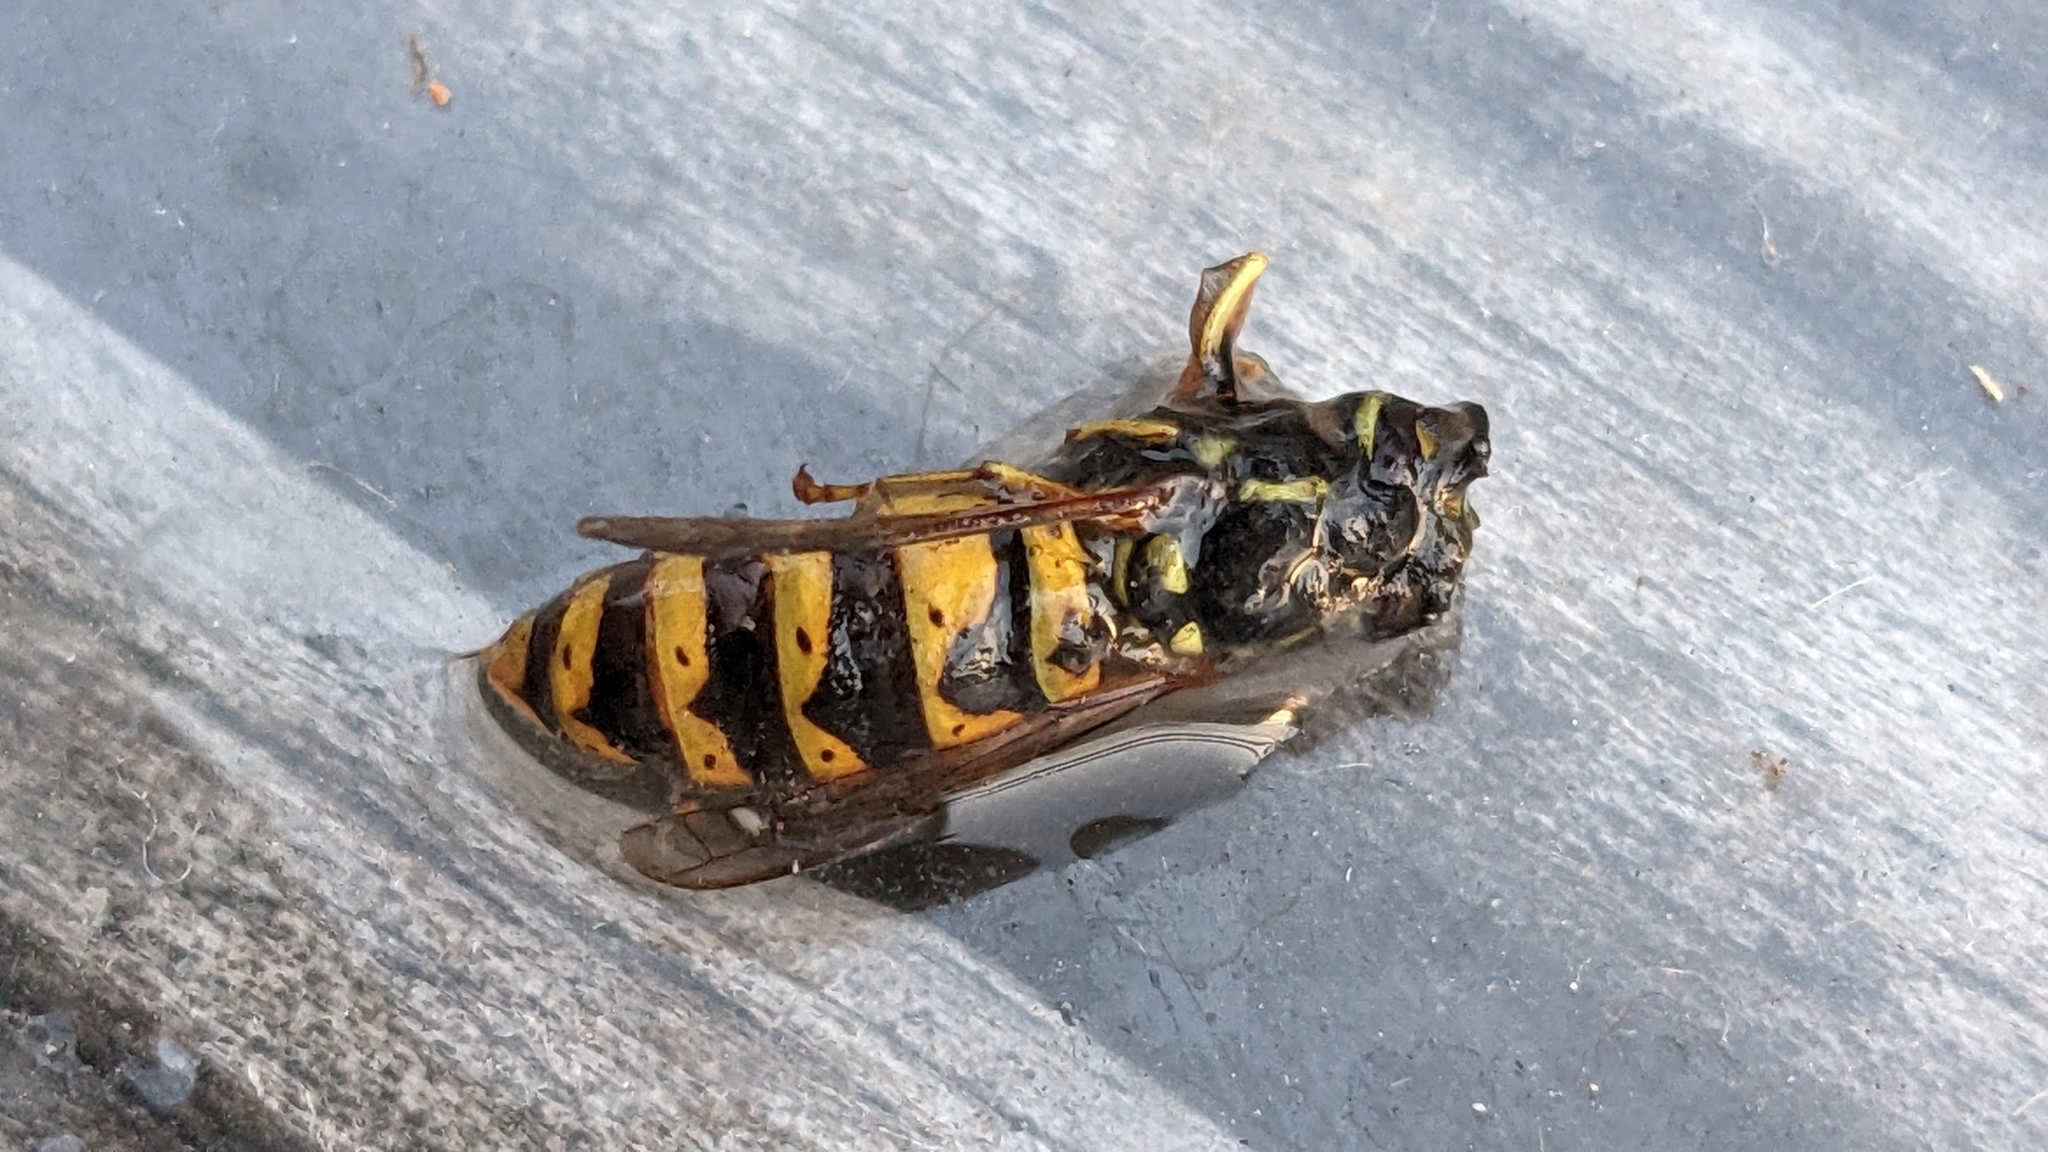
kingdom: Animalia
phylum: Arthropoda
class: Insecta
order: Hymenoptera
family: Vespidae
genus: Vespula
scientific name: Vespula vulgaris
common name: Common wasp
